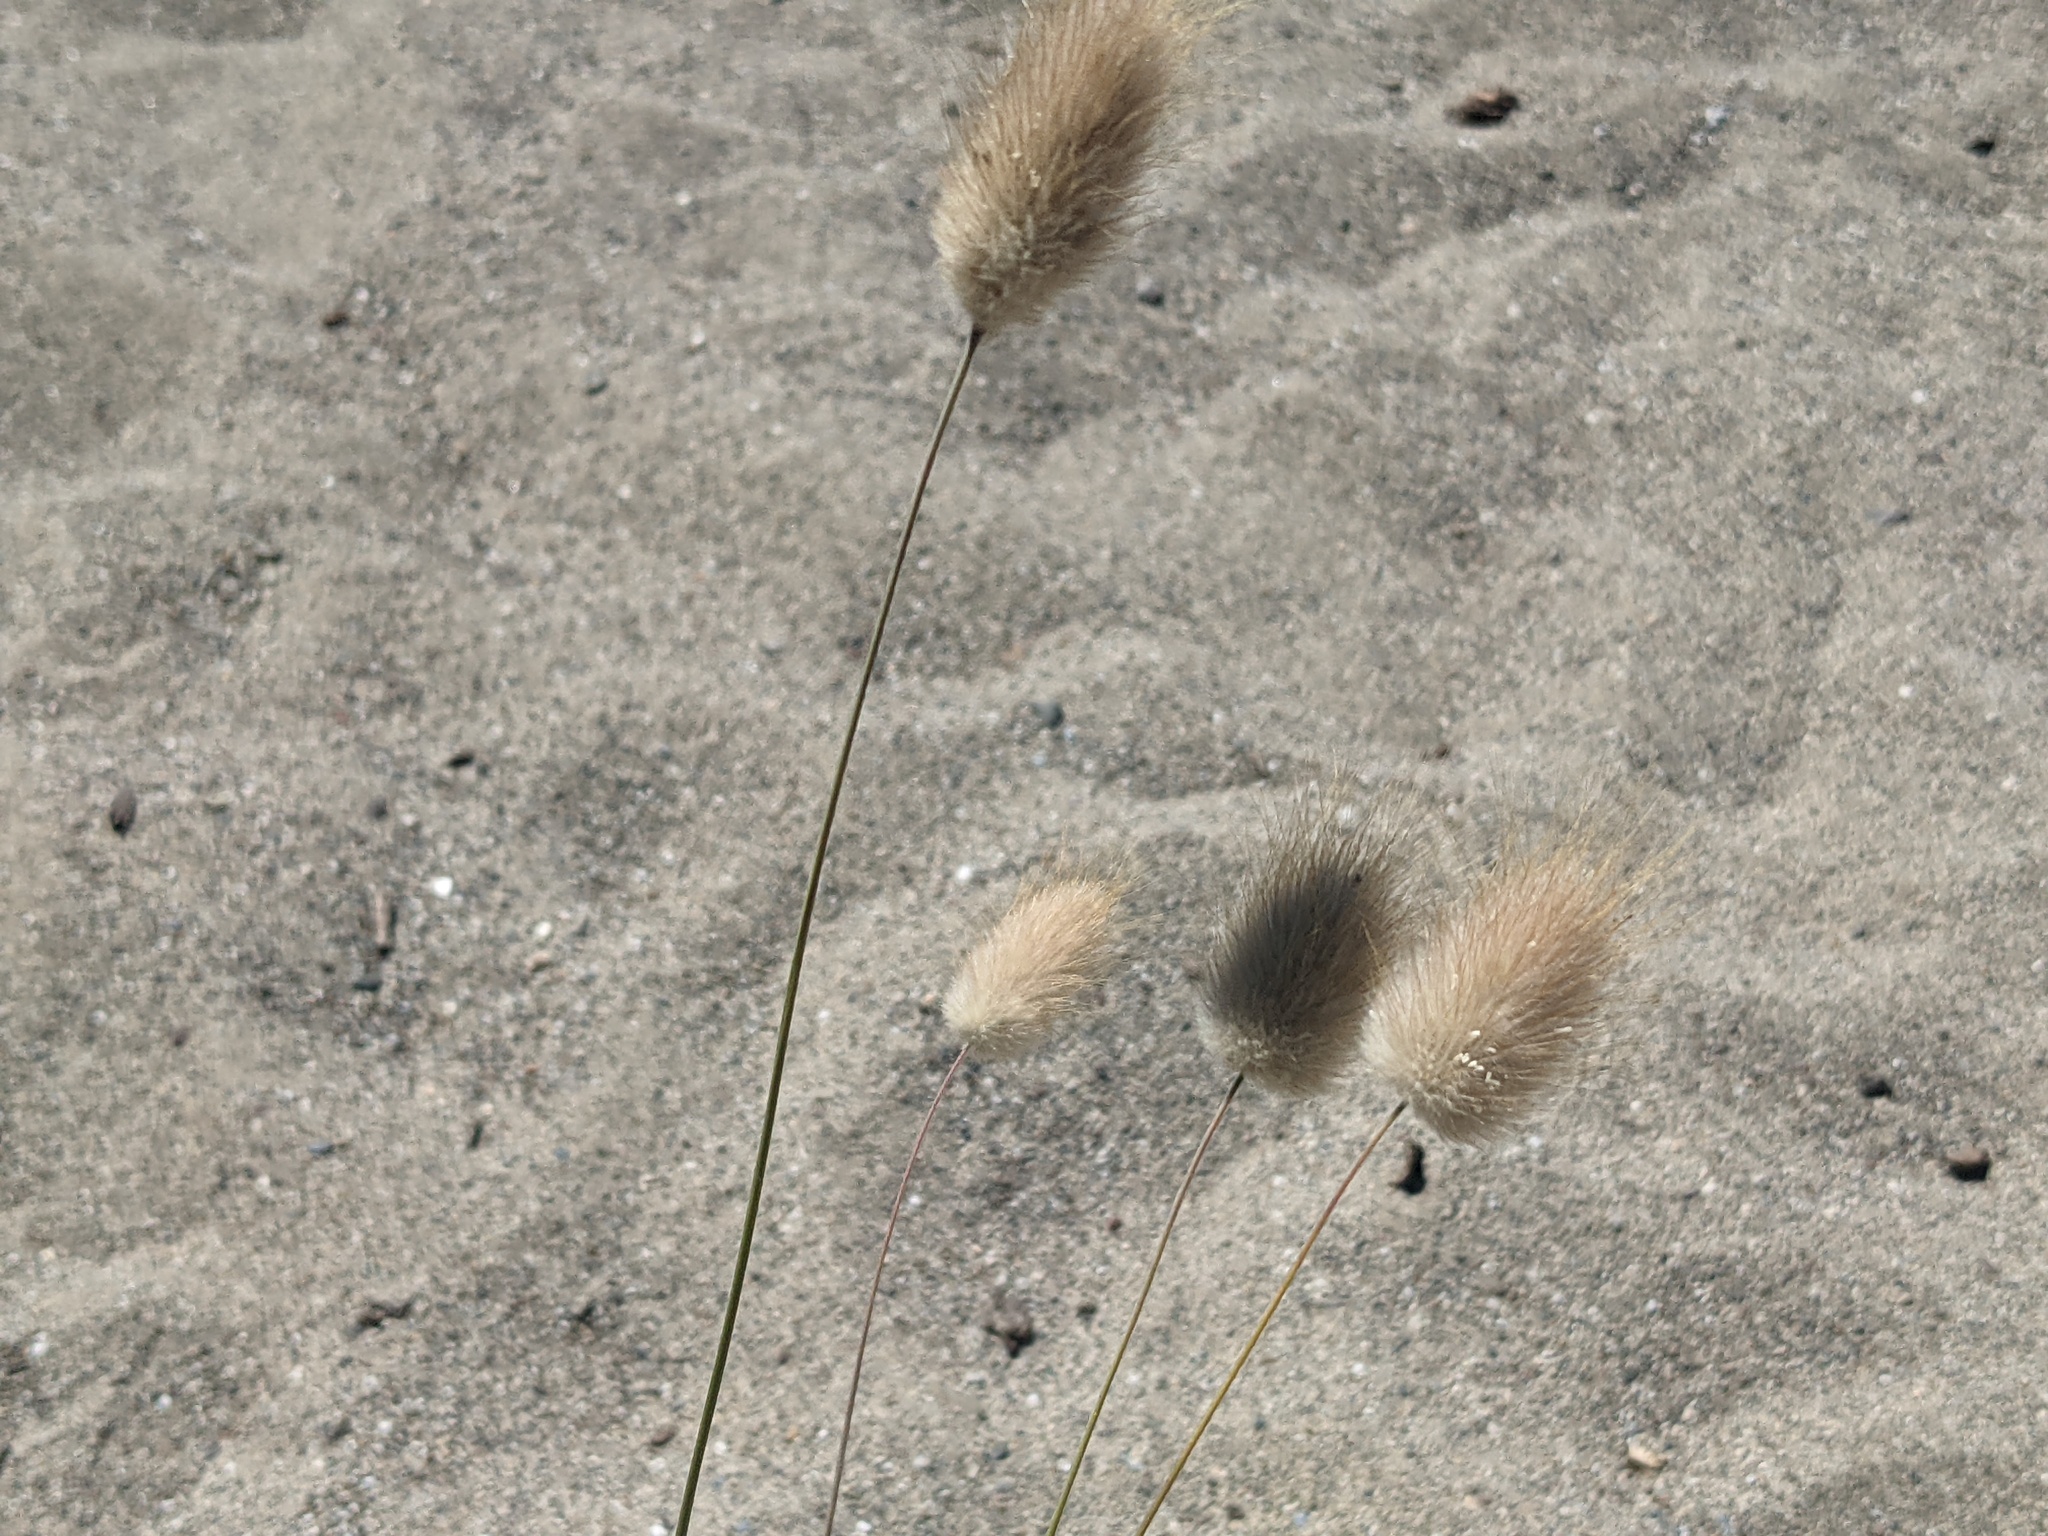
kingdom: Plantae
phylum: Tracheophyta
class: Liliopsida
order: Poales
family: Poaceae
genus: Lagurus
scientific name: Lagurus ovatus
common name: Hare's-tail
